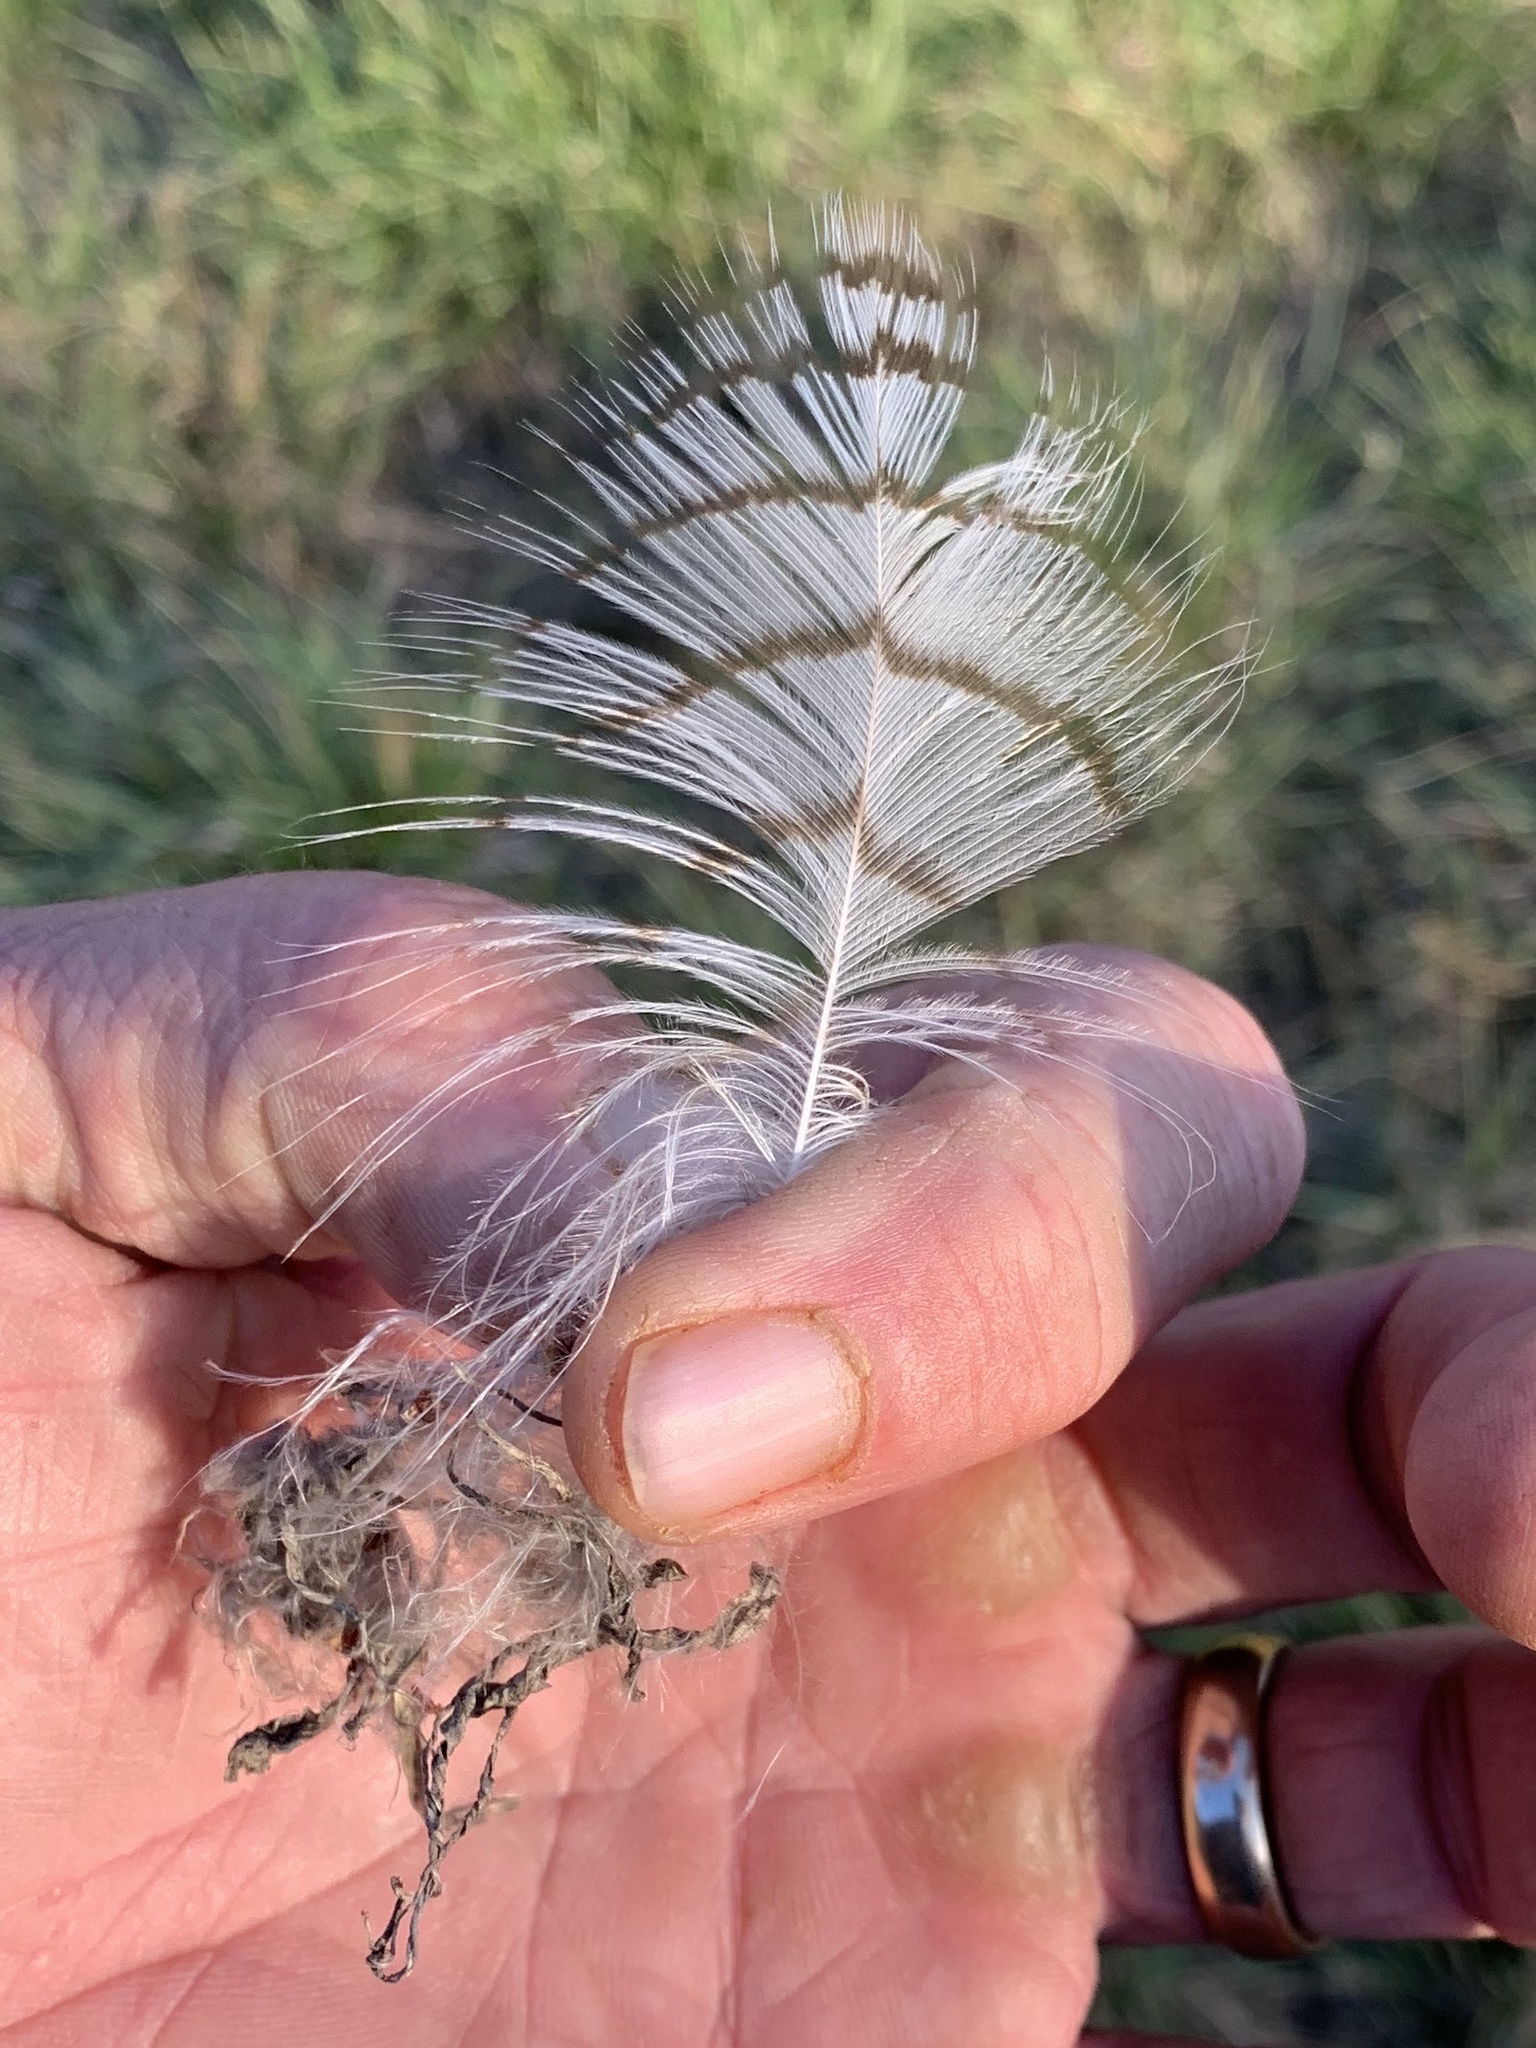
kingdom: Animalia
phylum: Chordata
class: Aves
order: Strigiformes
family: Strigidae
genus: Bubo
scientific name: Bubo virginianus
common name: Great horned owl
